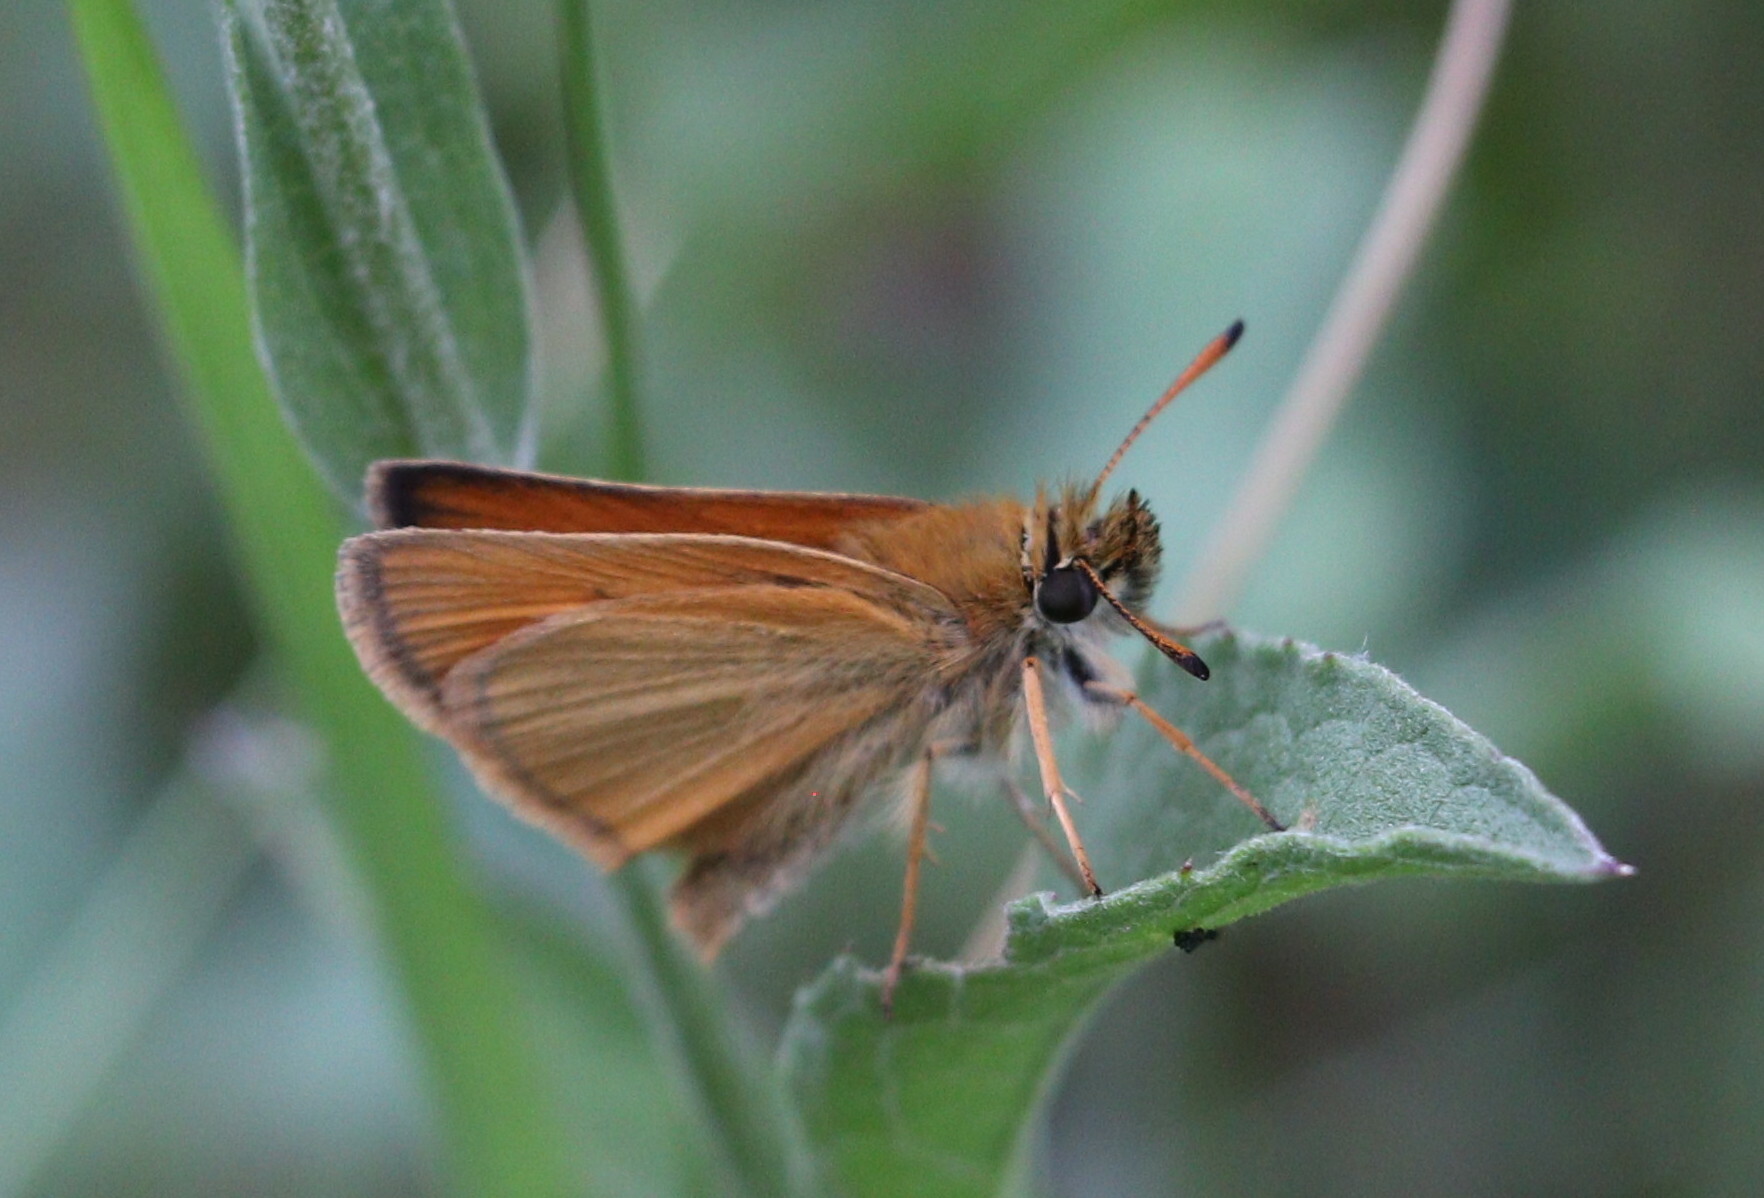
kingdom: Animalia
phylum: Arthropoda
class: Insecta
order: Lepidoptera
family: Hesperiidae
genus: Thymelicus
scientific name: Thymelicus lineola
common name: Essex skipper
